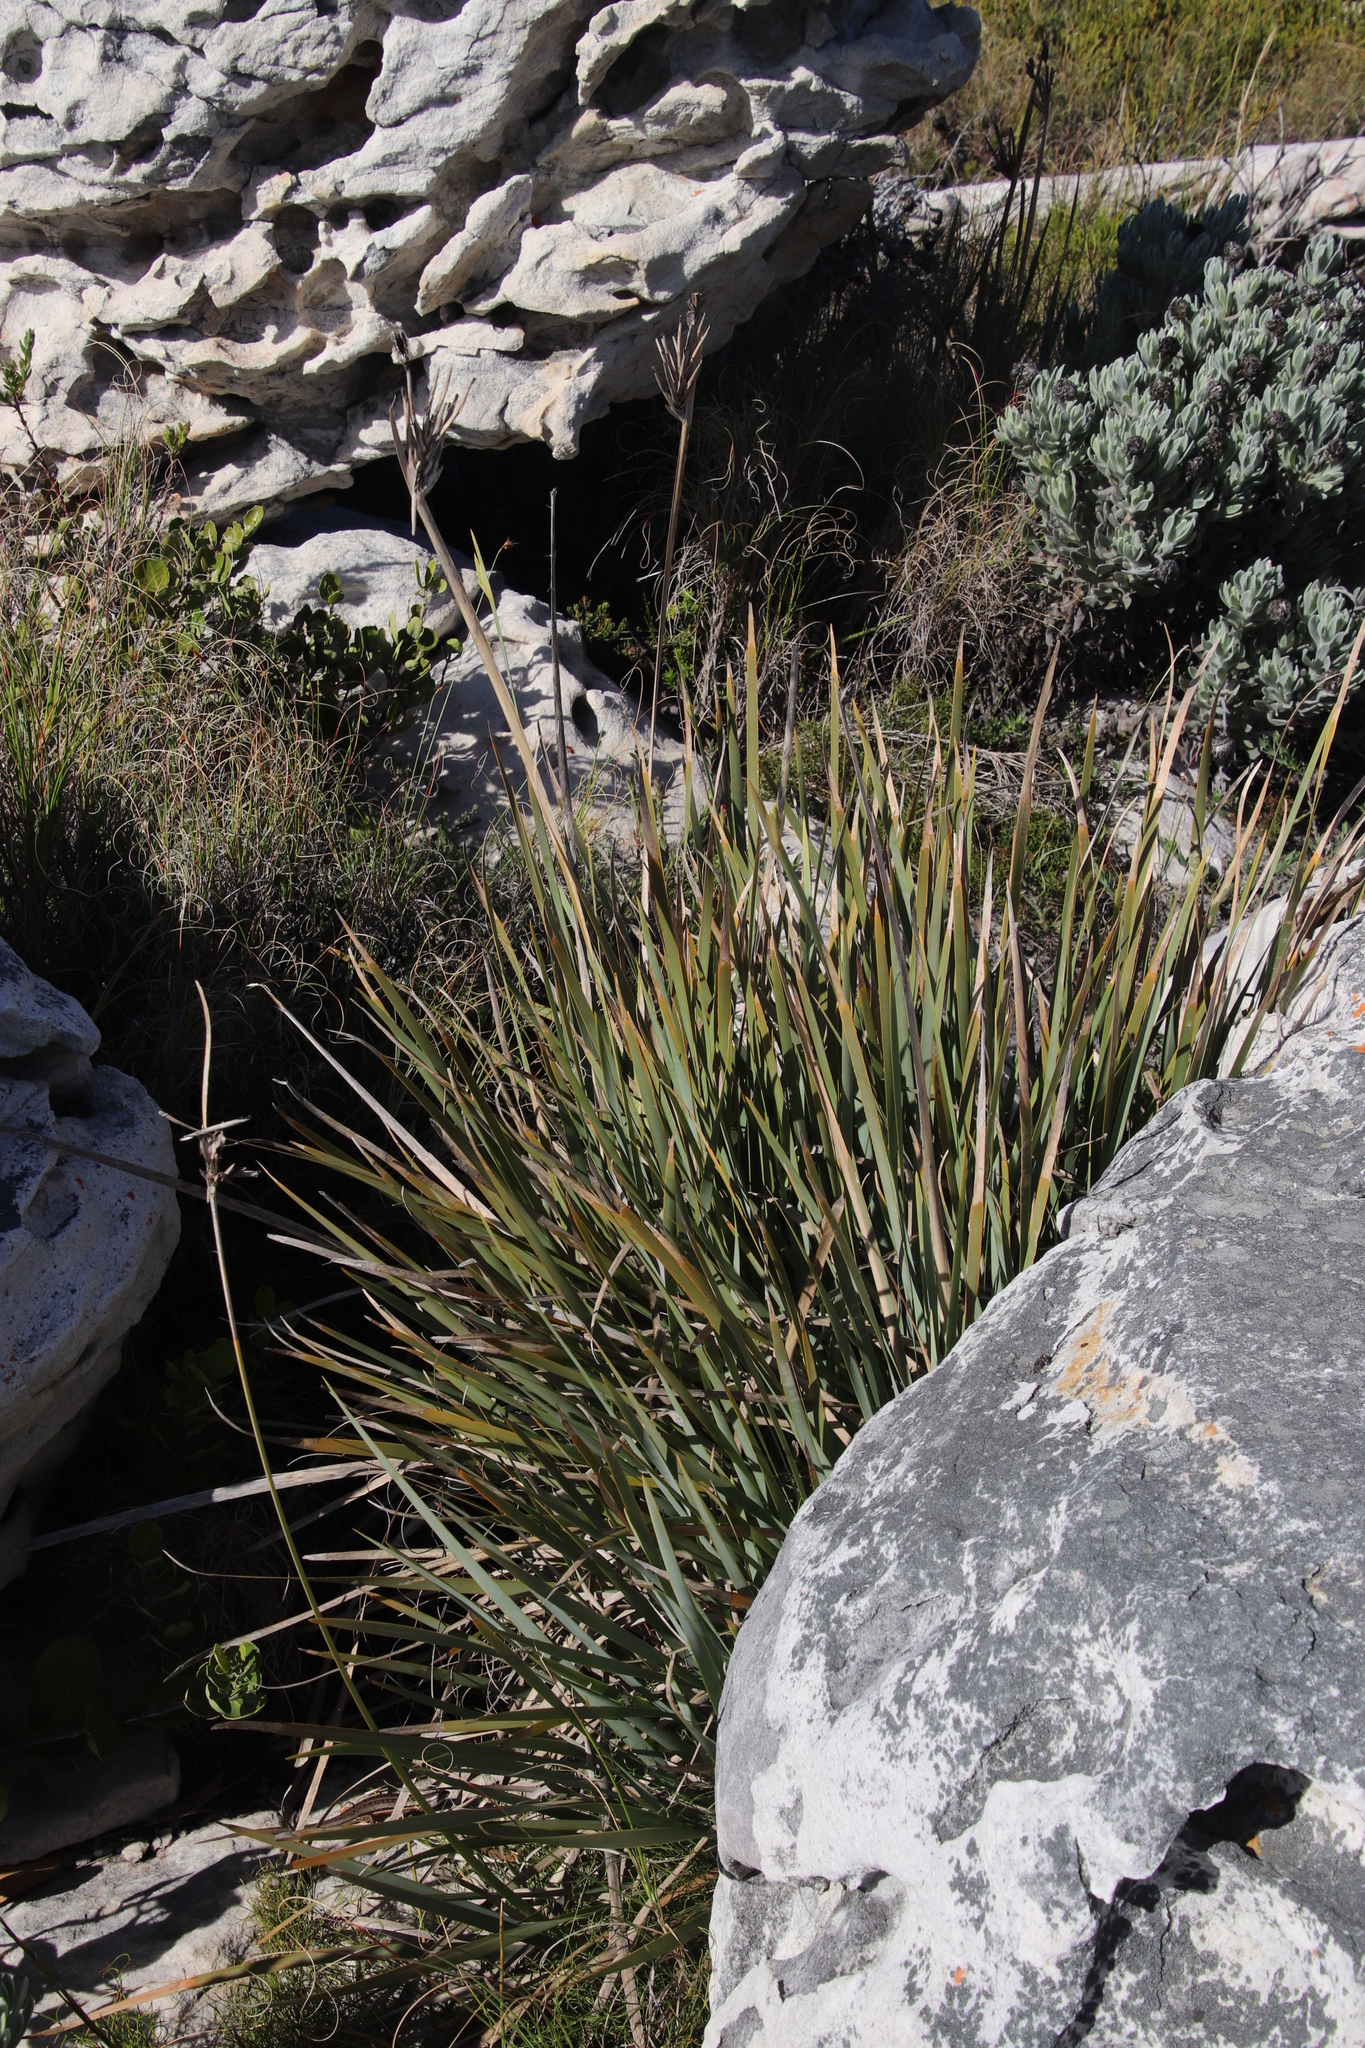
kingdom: Plantae
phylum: Tracheophyta
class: Liliopsida
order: Asparagales
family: Iridaceae
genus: Bobartia
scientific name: Bobartia gladiata
